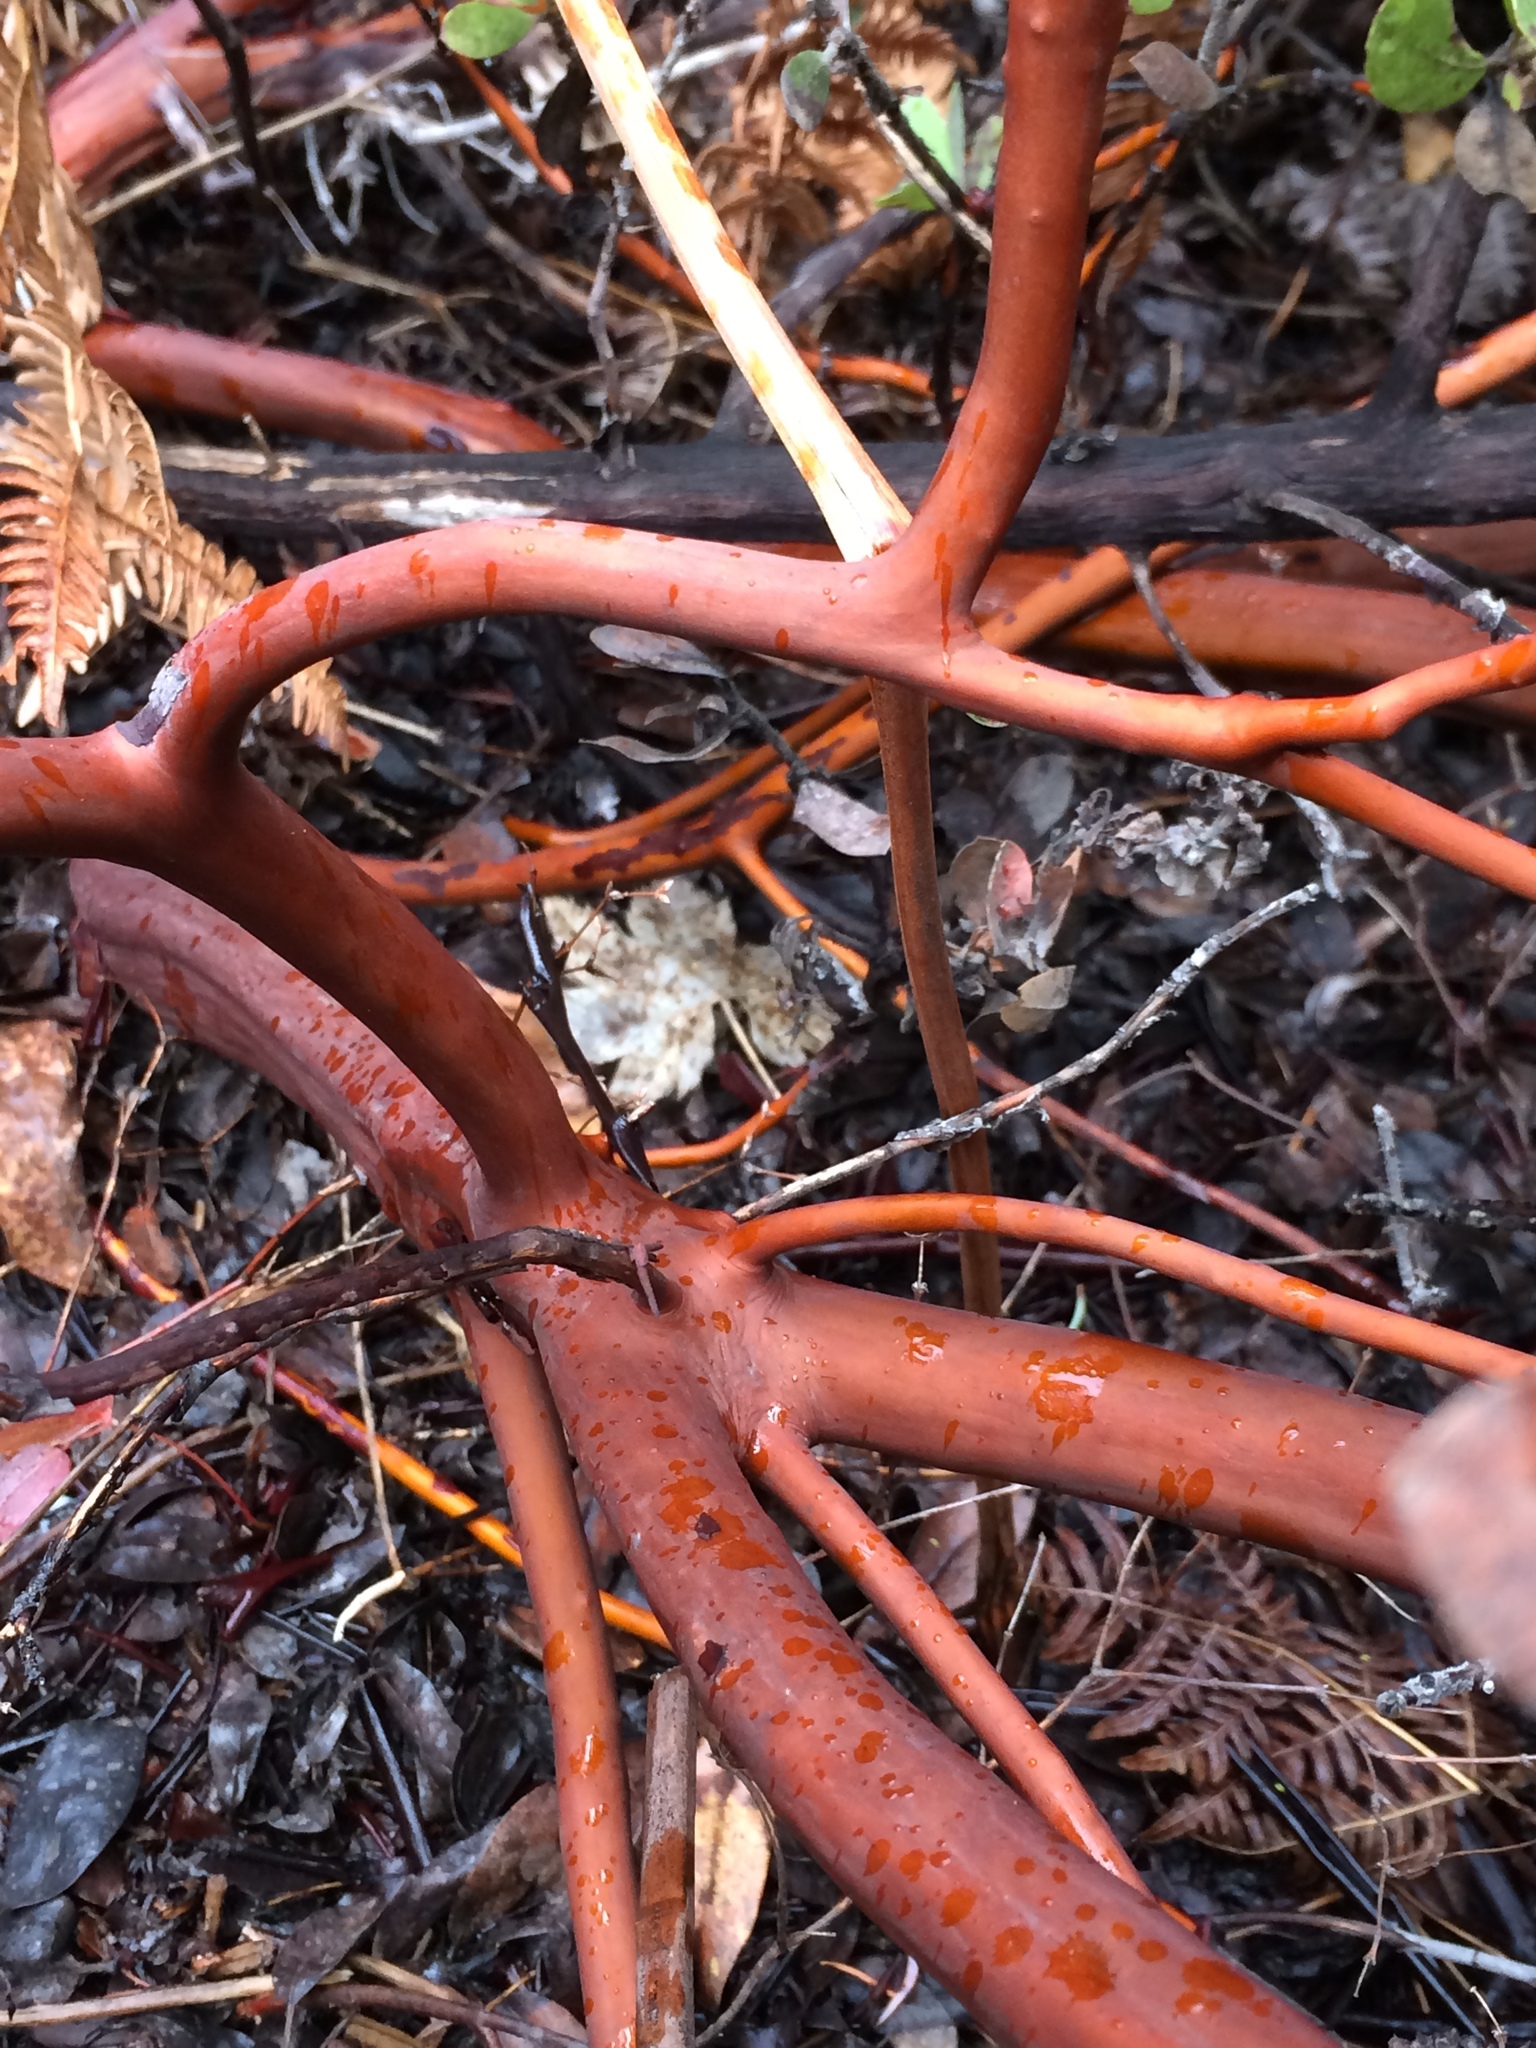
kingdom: Plantae
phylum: Tracheophyta
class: Magnoliopsida
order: Ericales
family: Ericaceae
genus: Arctostaphylos
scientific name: Arctostaphylos columbiana
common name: Bristly bearberry
